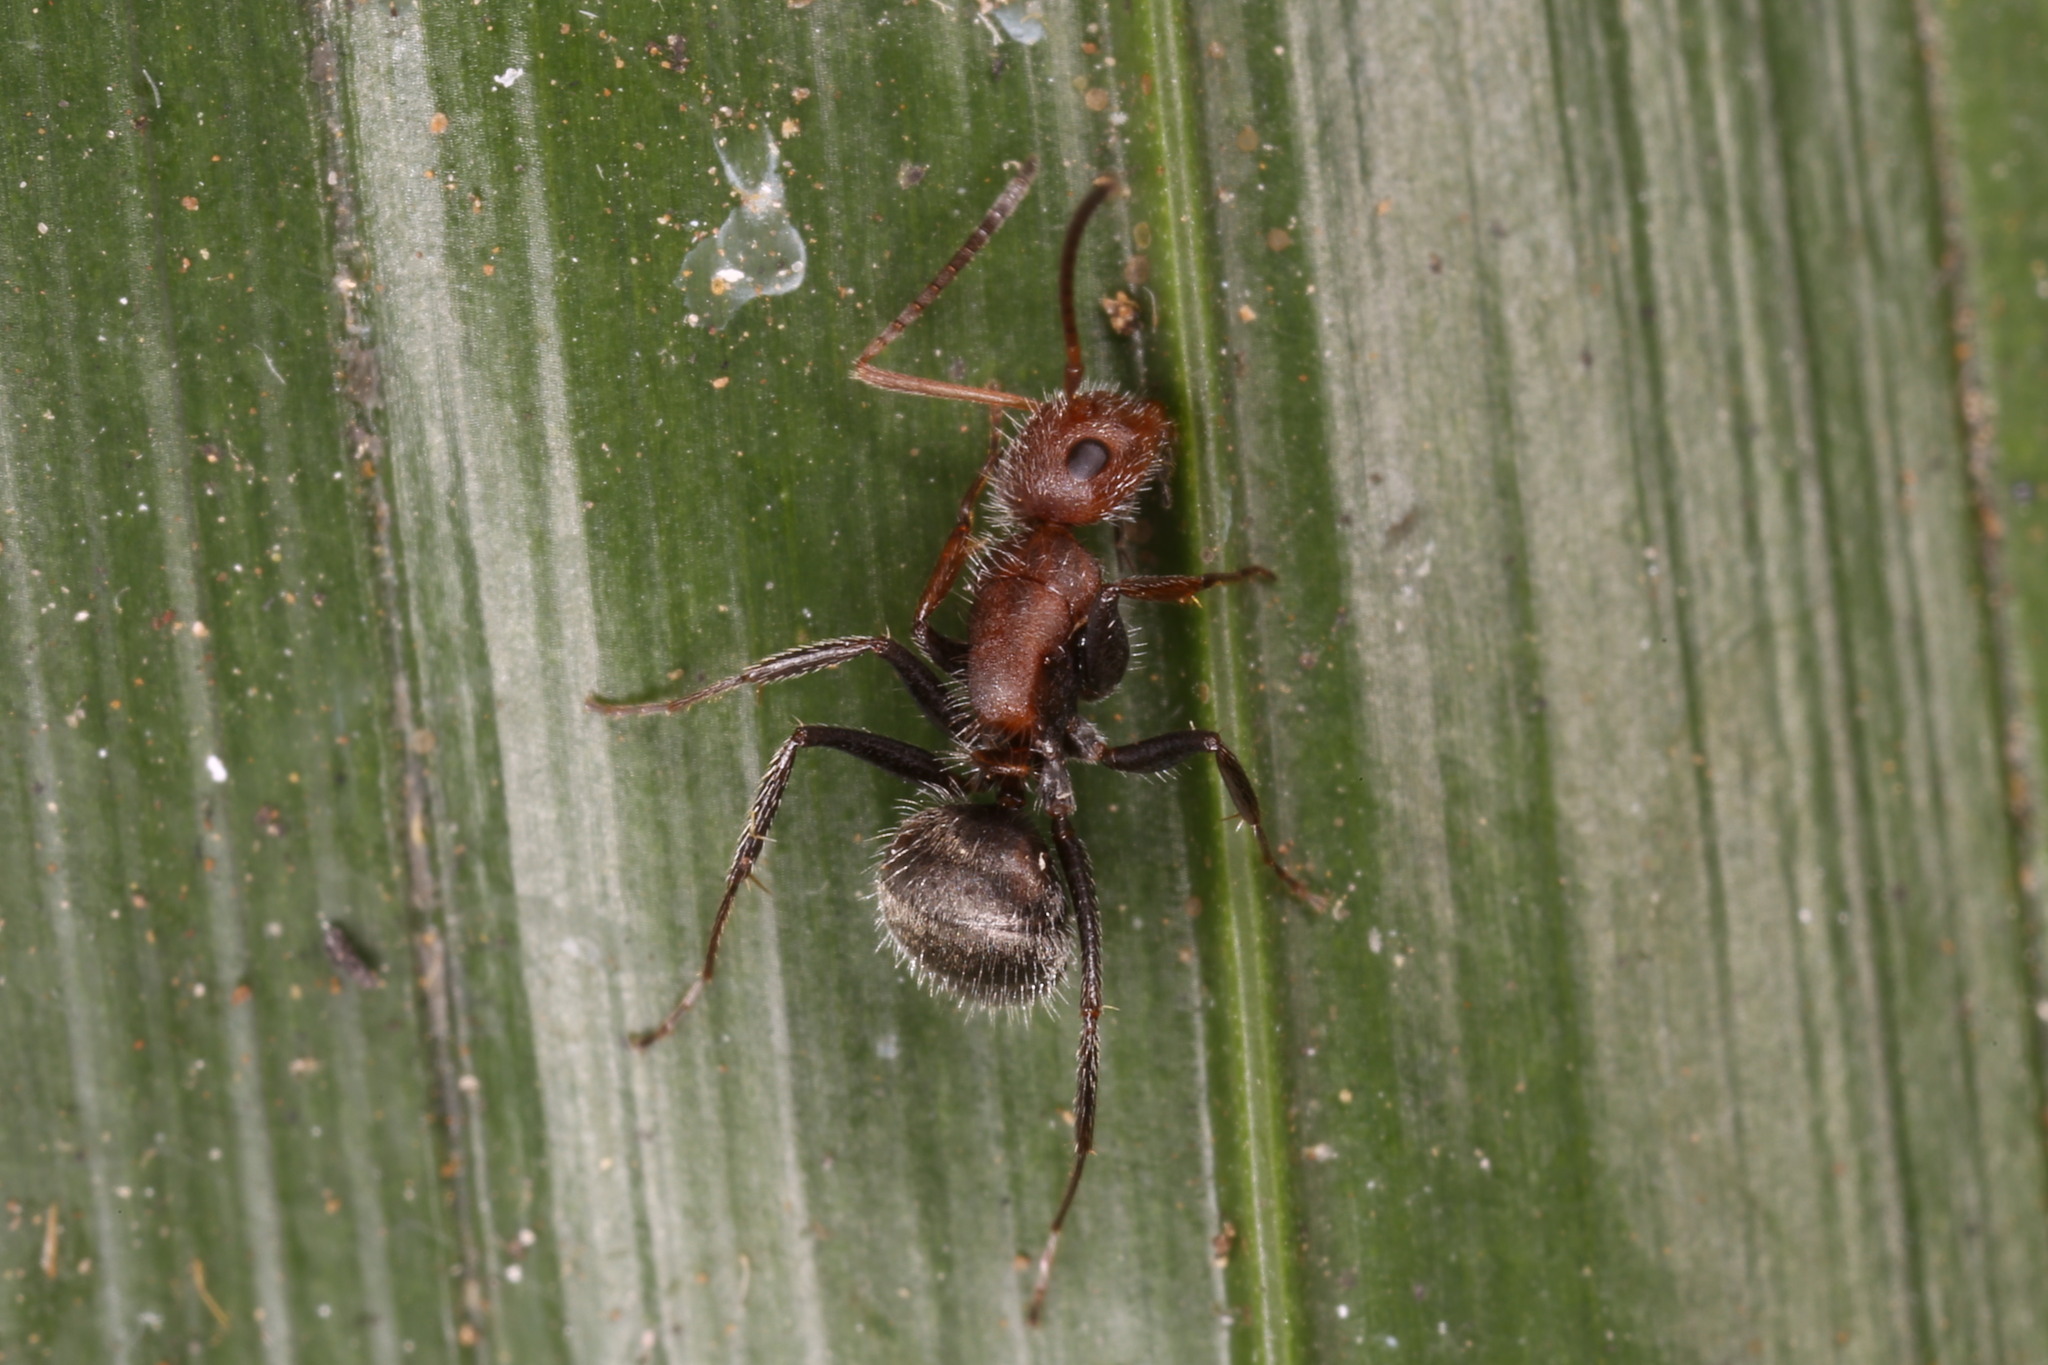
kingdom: Animalia
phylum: Arthropoda
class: Insecta
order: Hymenoptera
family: Formicidae
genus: Camponotus
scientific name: Camponotus planatus
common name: Compact carpenter ant
